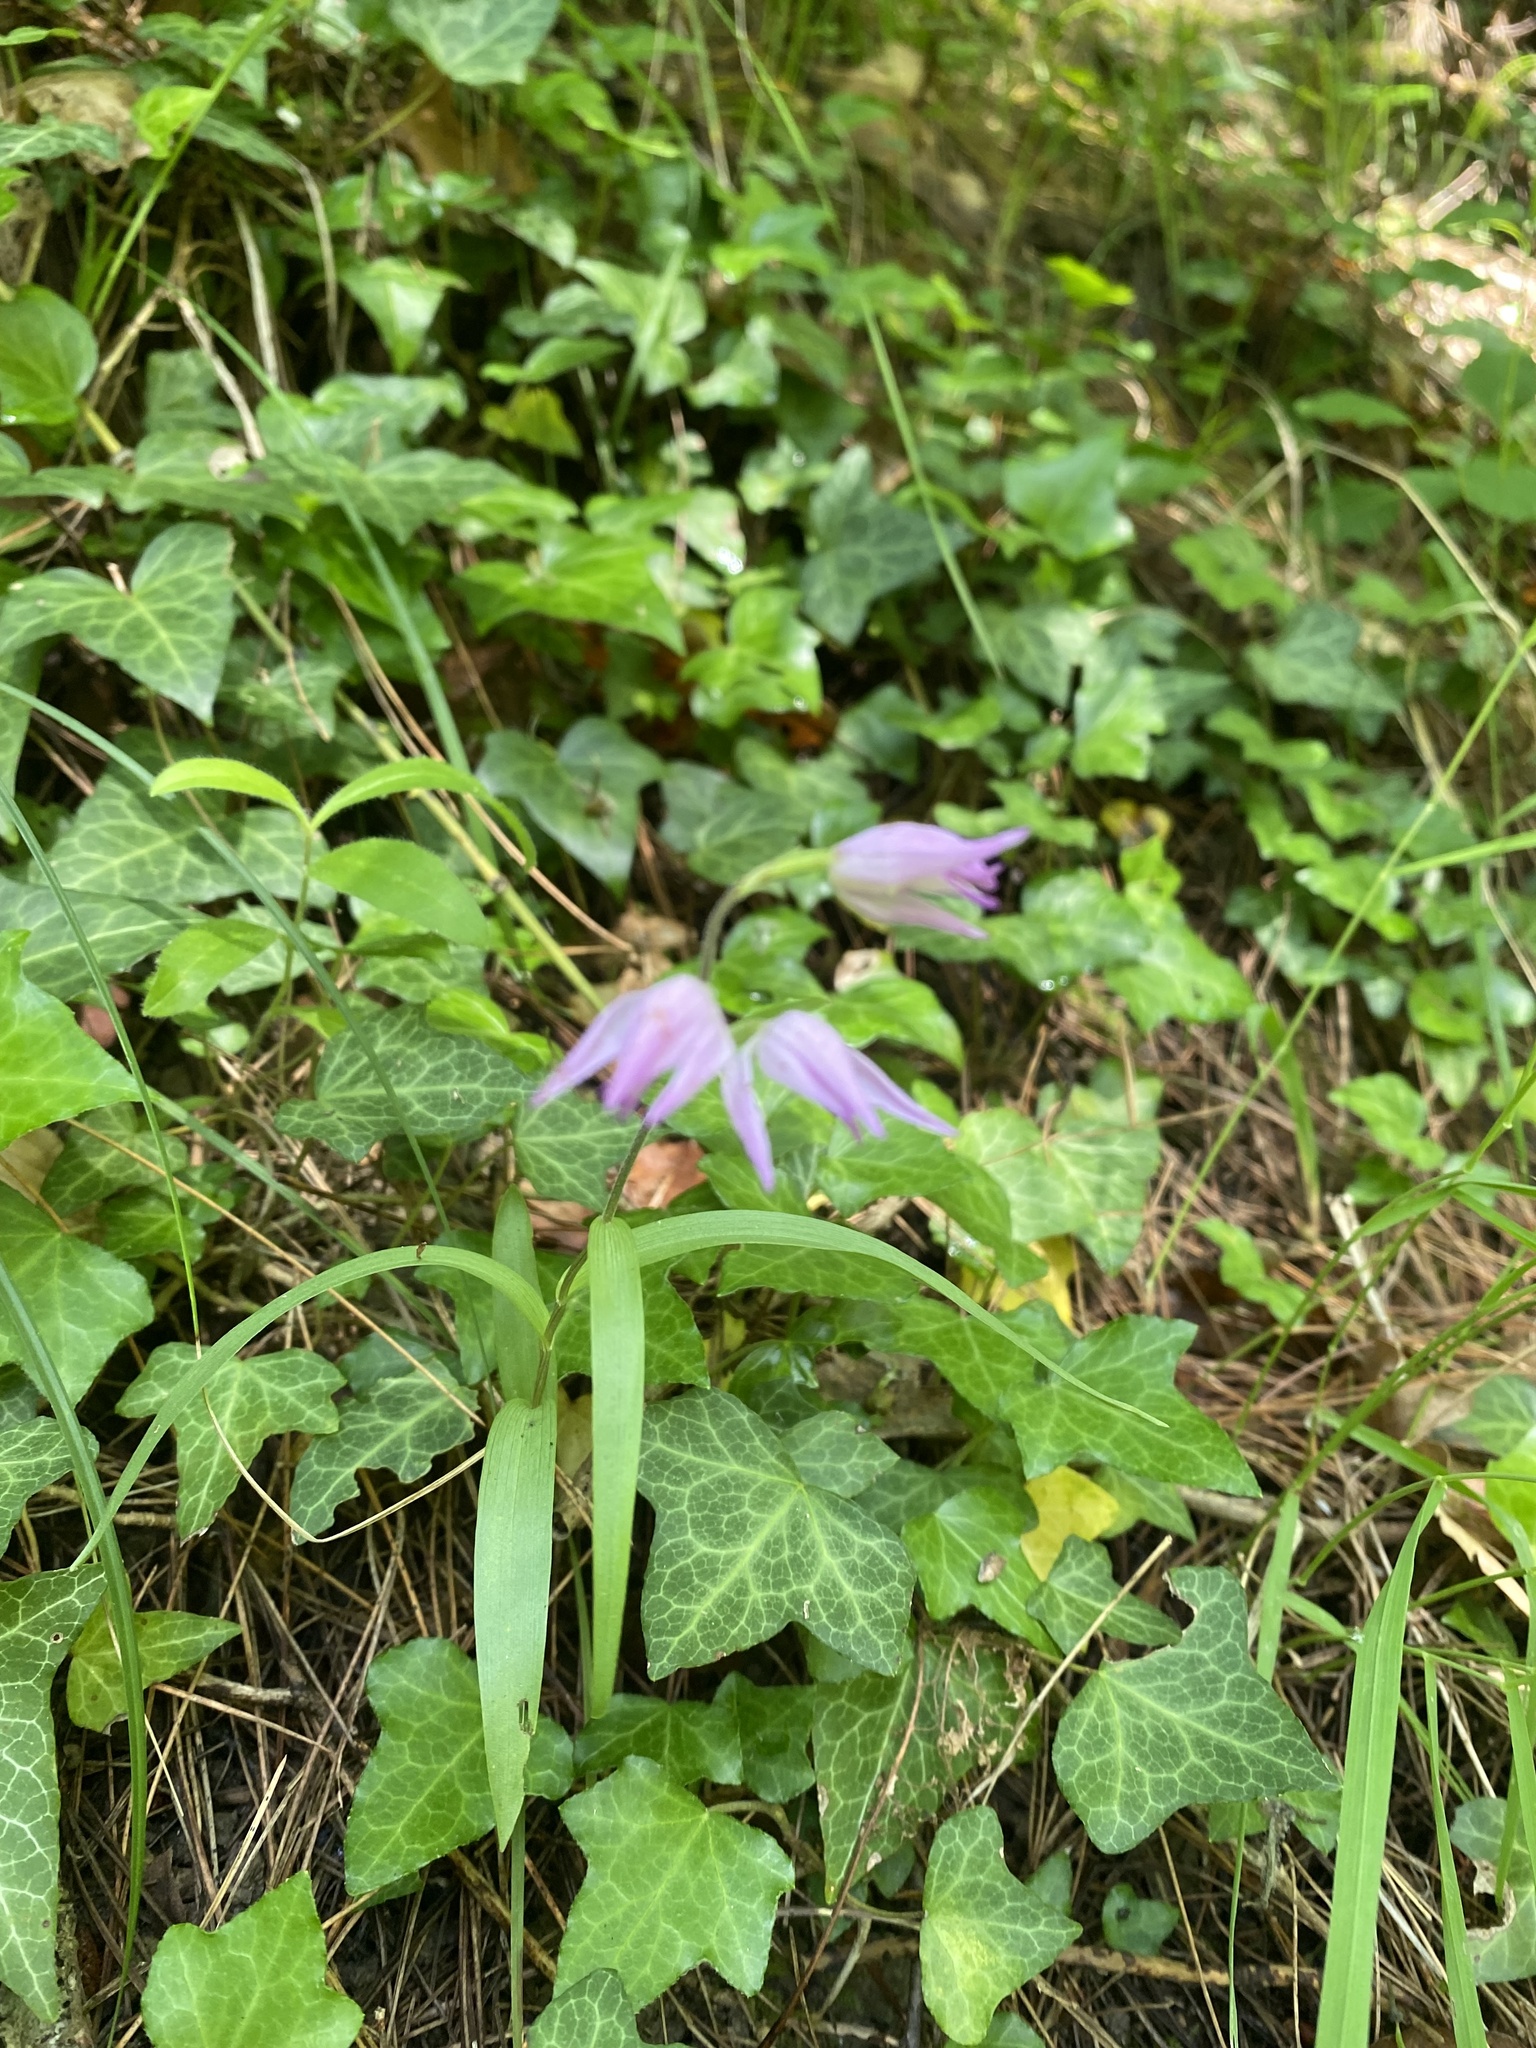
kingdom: Plantae
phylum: Tracheophyta
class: Liliopsida
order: Asparagales
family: Orchidaceae
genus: Cephalanthera
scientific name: Cephalanthera rubra
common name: Red helleborine
